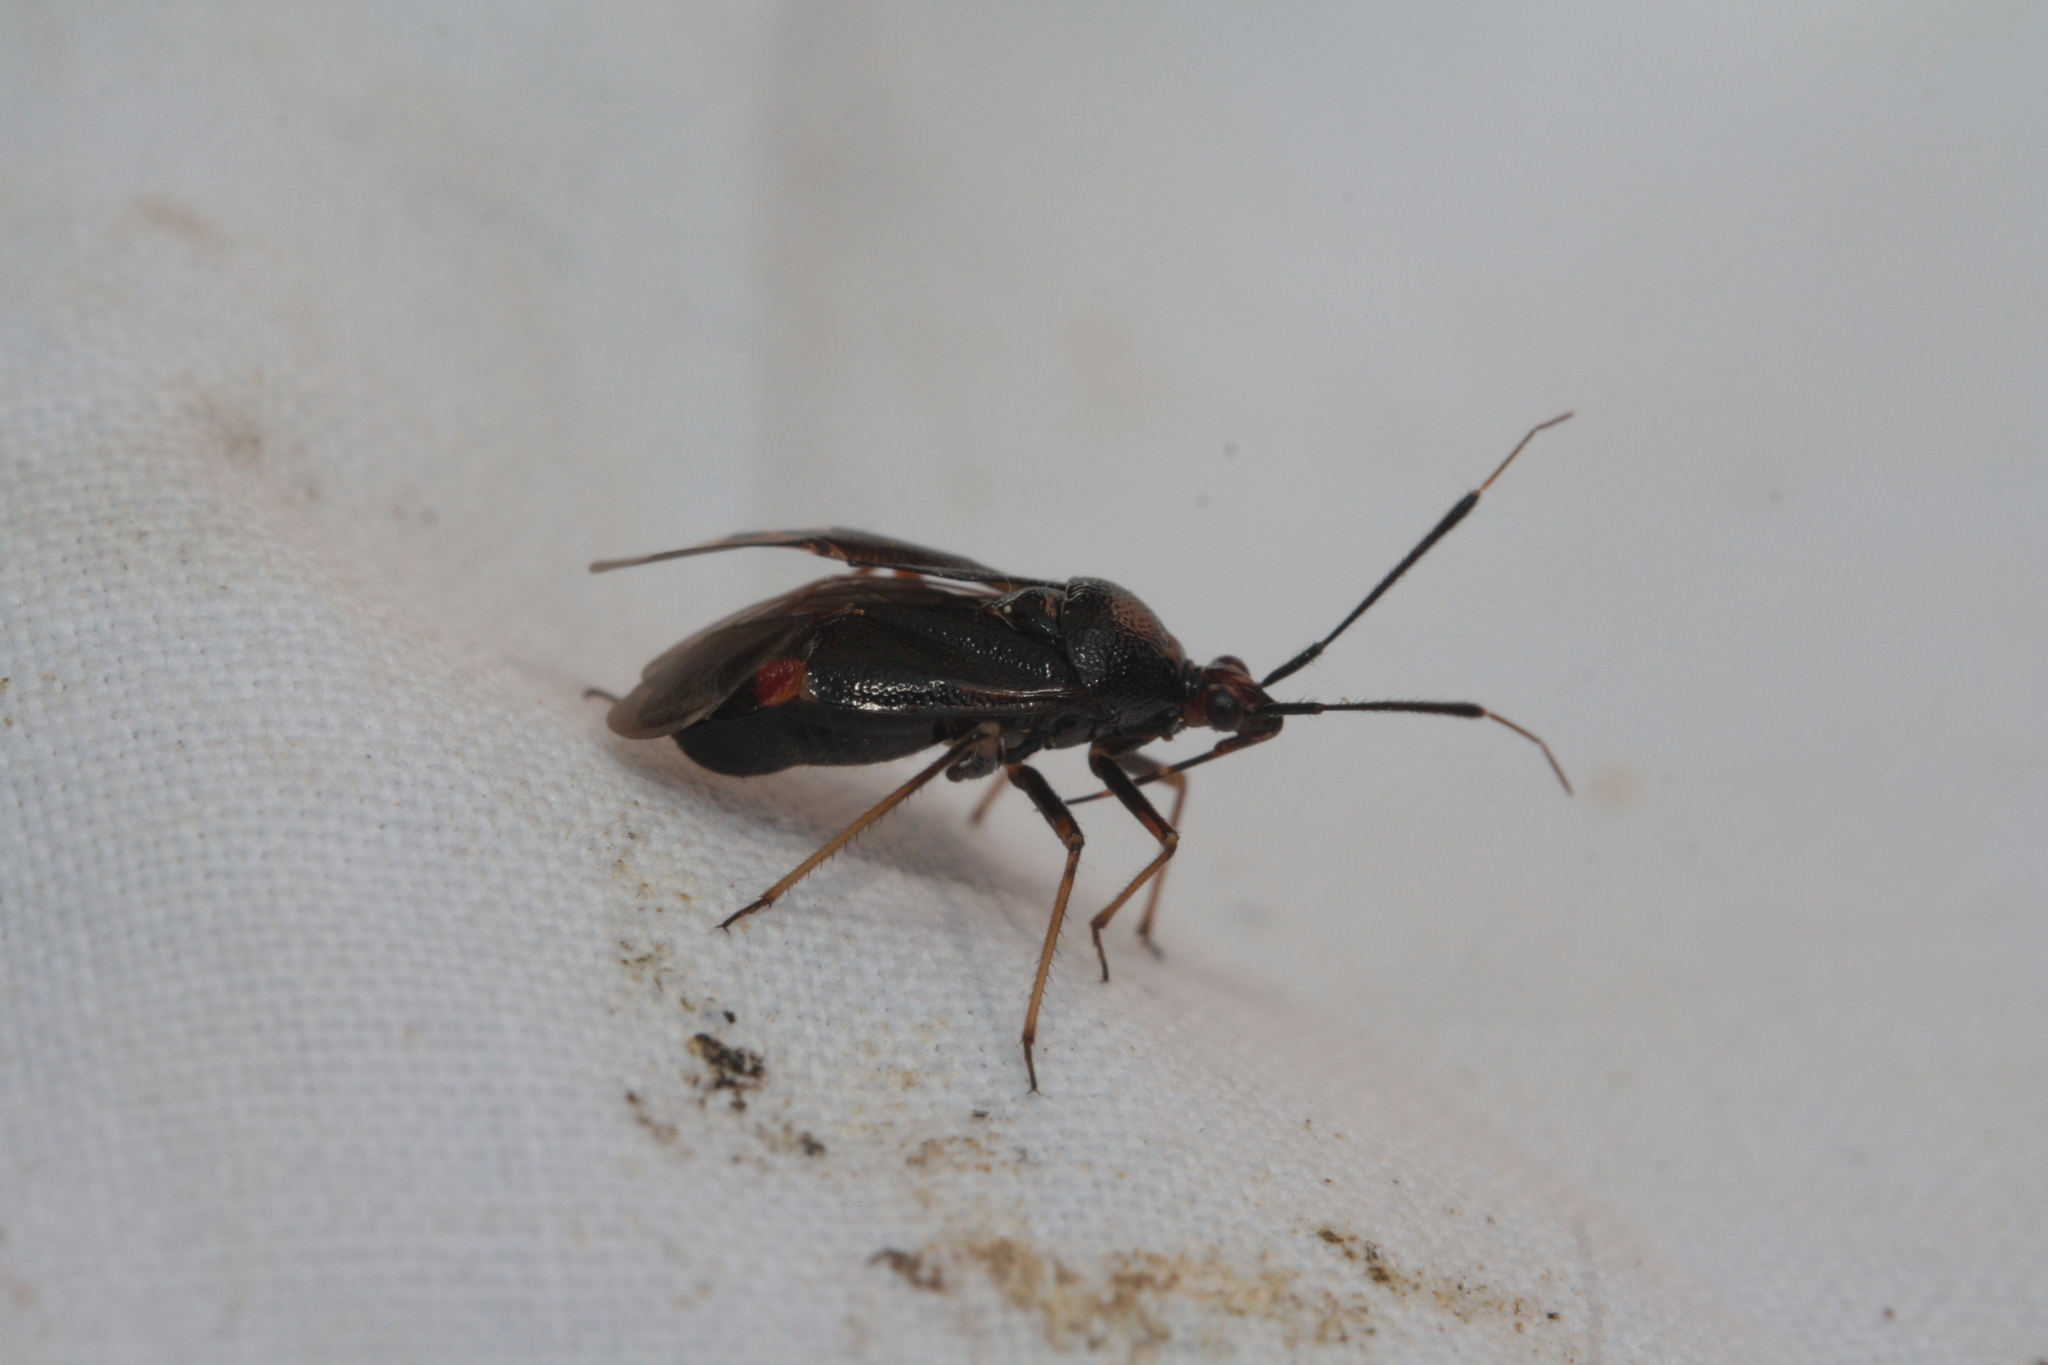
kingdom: Animalia
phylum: Arthropoda
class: Insecta
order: Hemiptera
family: Miridae
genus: Deraeocoris
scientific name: Deraeocoris ruber
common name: Plant bug
